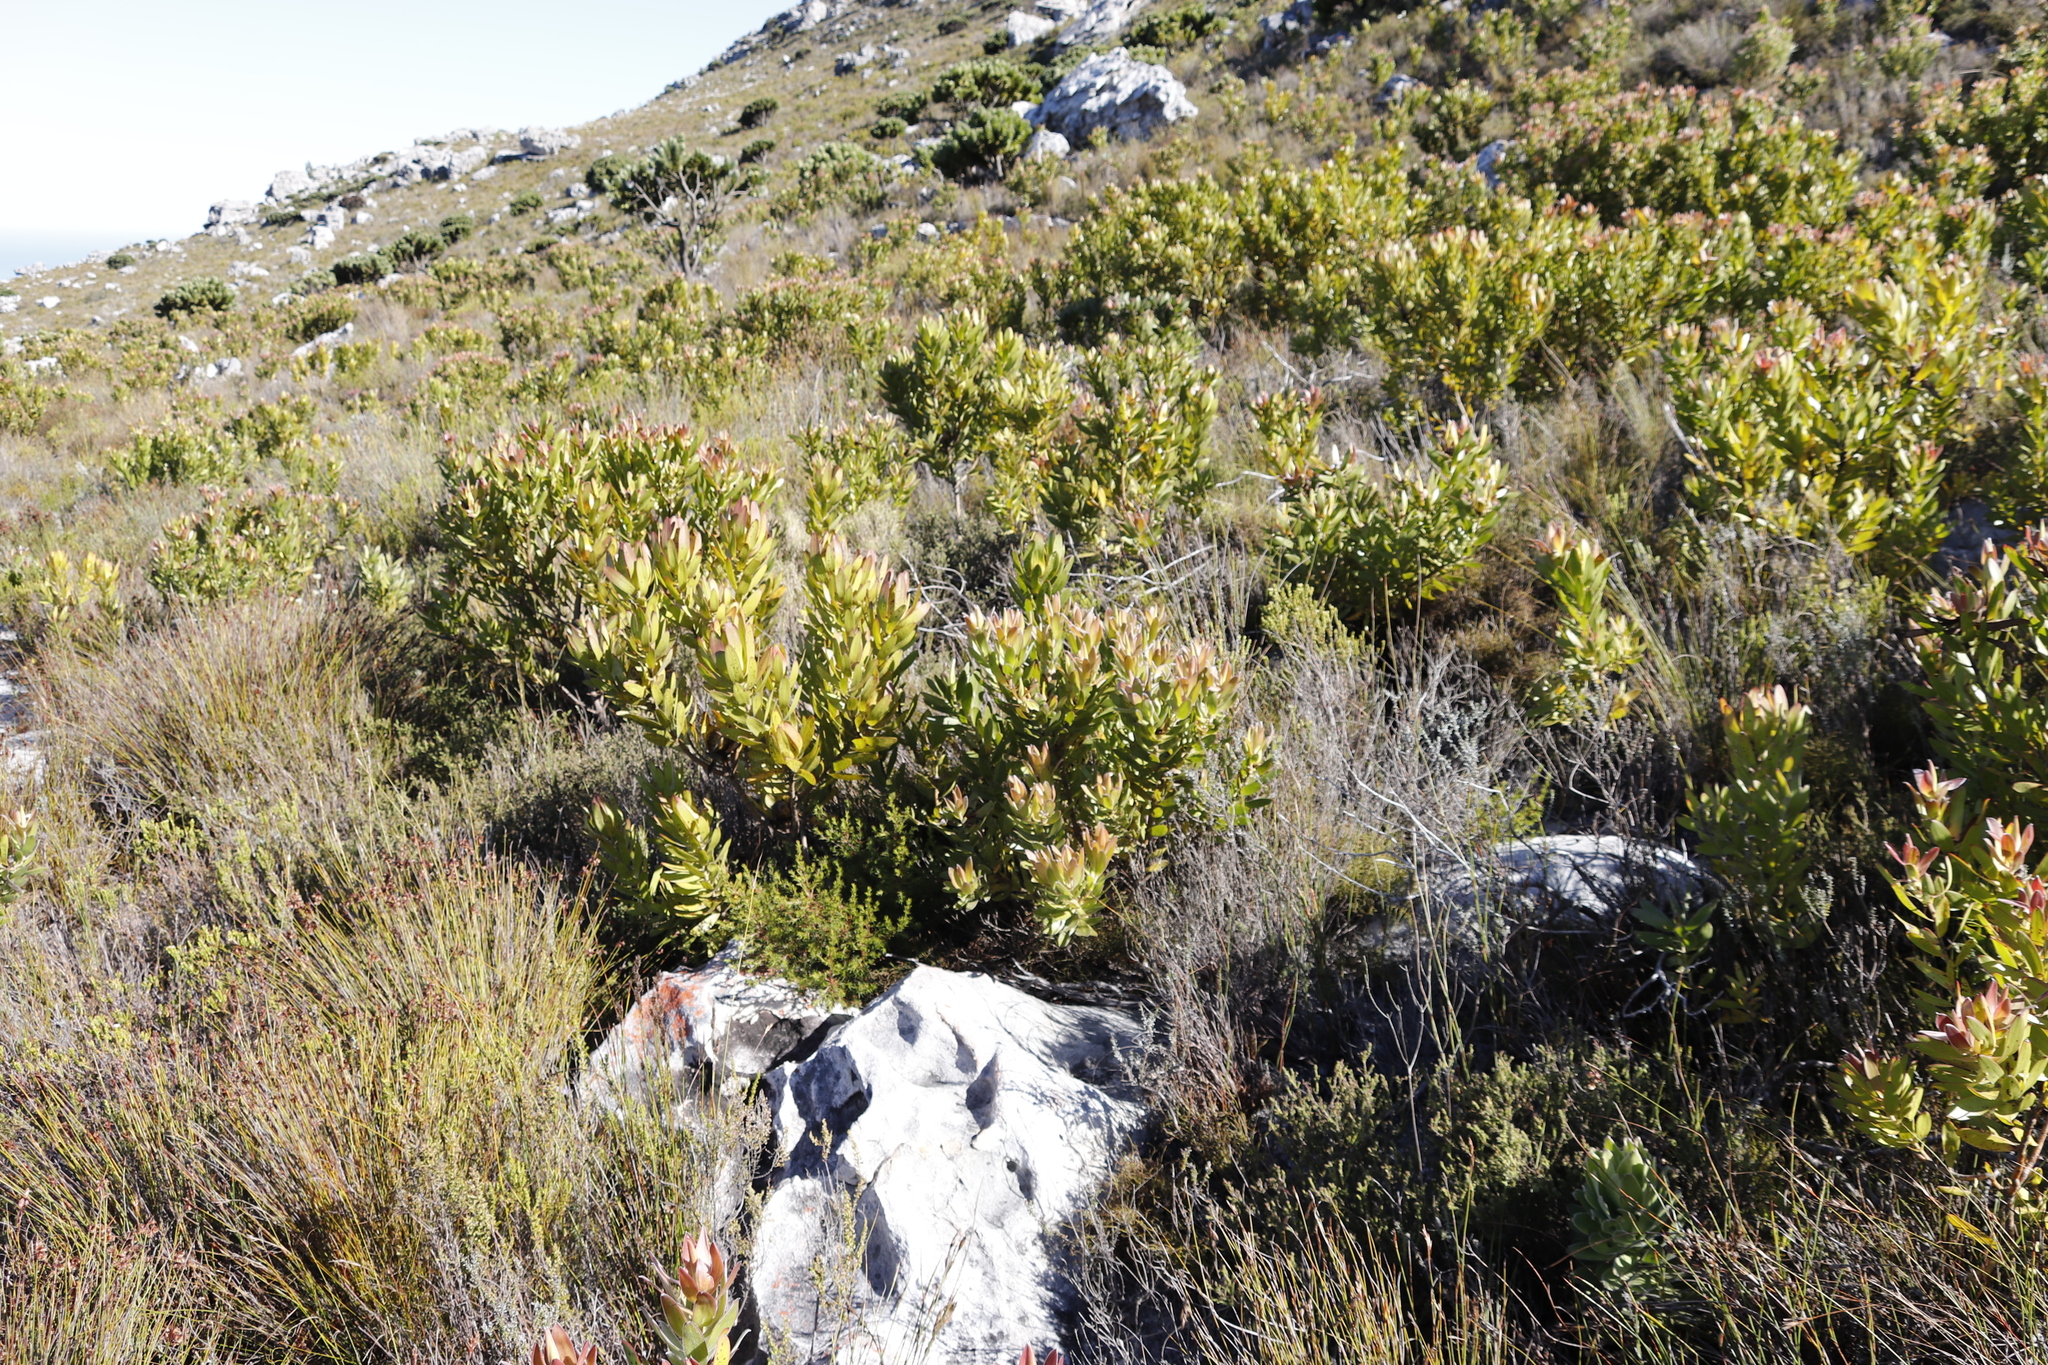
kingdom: Plantae
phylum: Tracheophyta
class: Magnoliopsida
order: Proteales
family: Proteaceae
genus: Leucadendron
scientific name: Leucadendron laureolum
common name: Golden sunshinebush
